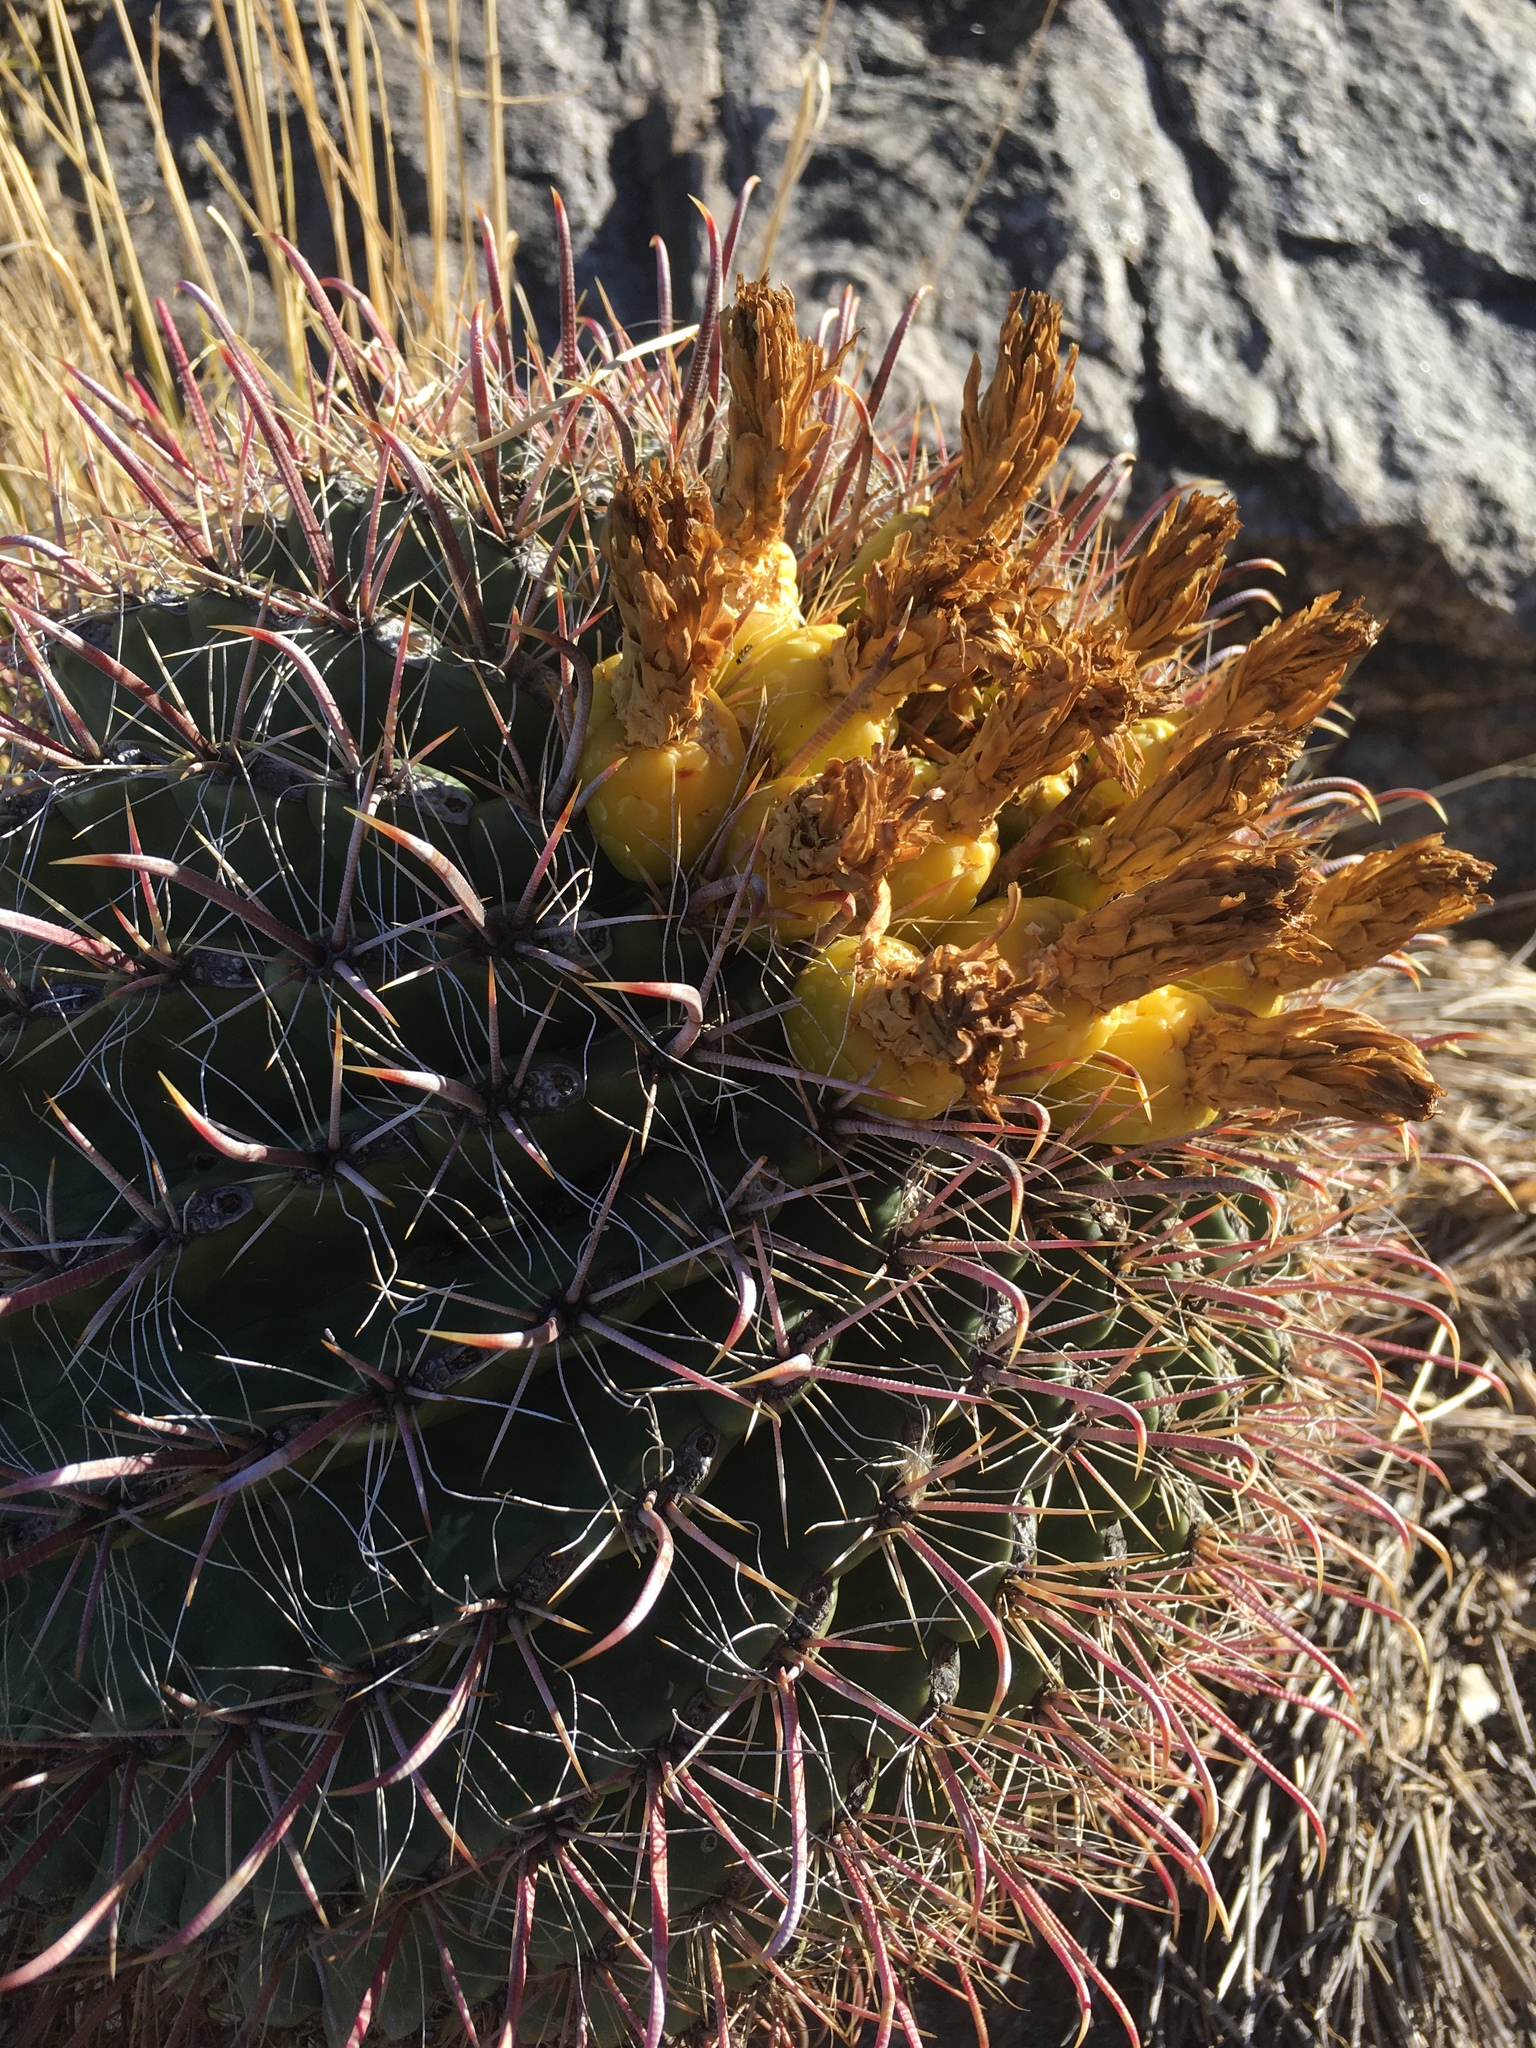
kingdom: Plantae
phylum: Tracheophyta
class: Magnoliopsida
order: Caryophyllales
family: Cactaceae
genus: Ferocactus
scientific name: Ferocactus wislizeni
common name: Candy barrel cactus
